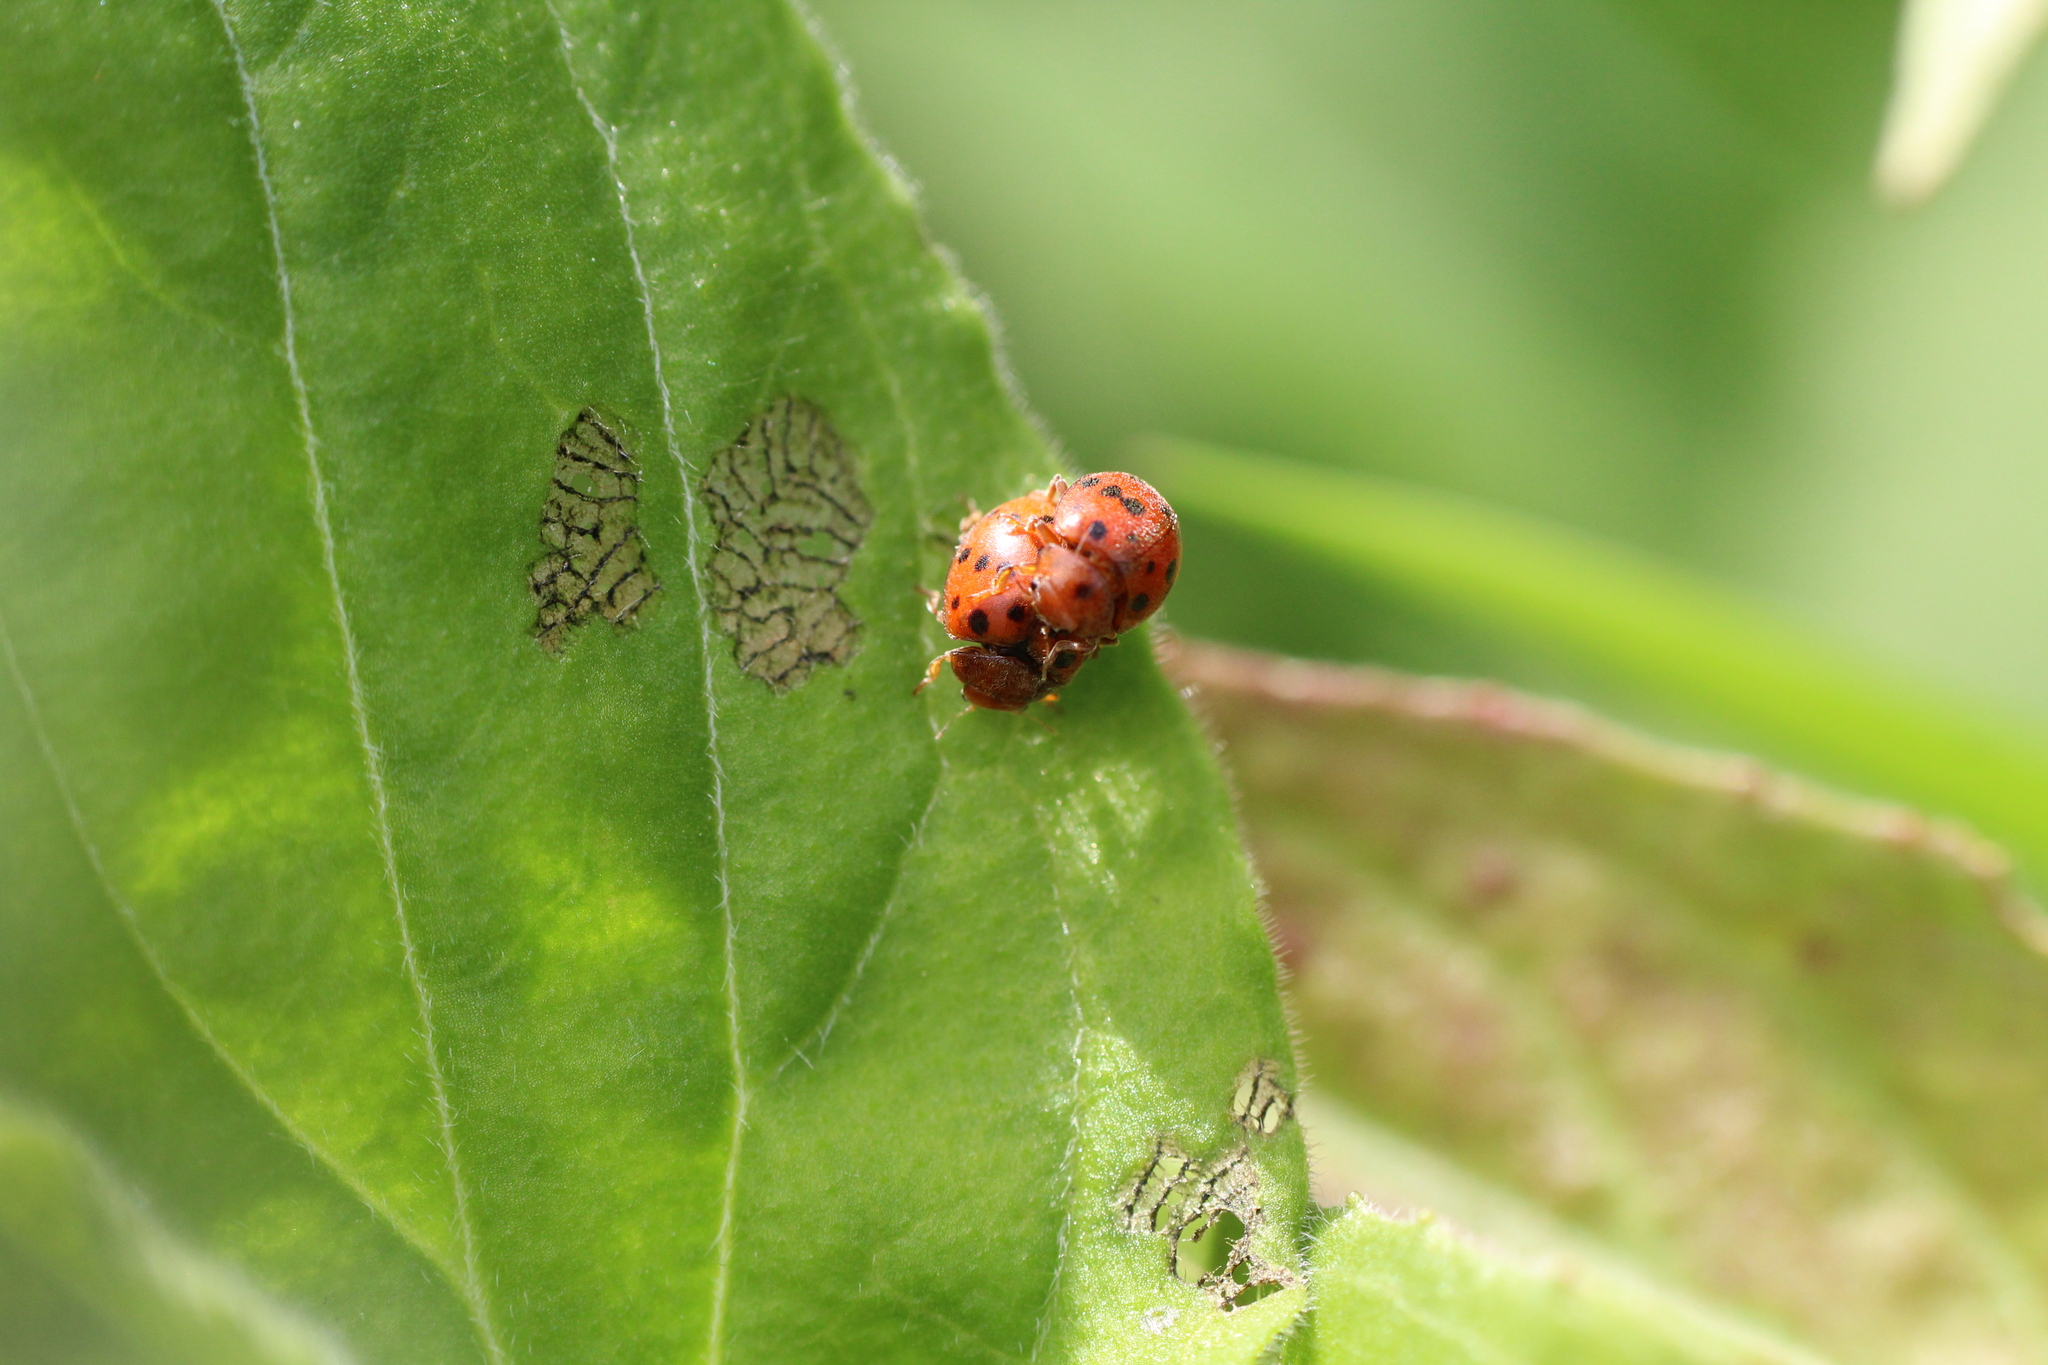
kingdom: Animalia
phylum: Arthropoda
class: Insecta
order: Coleoptera
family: Coccinellidae
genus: Subcoccinella
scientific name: Subcoccinella vigintiquatuorpunctata
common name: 24-spot ladybird
